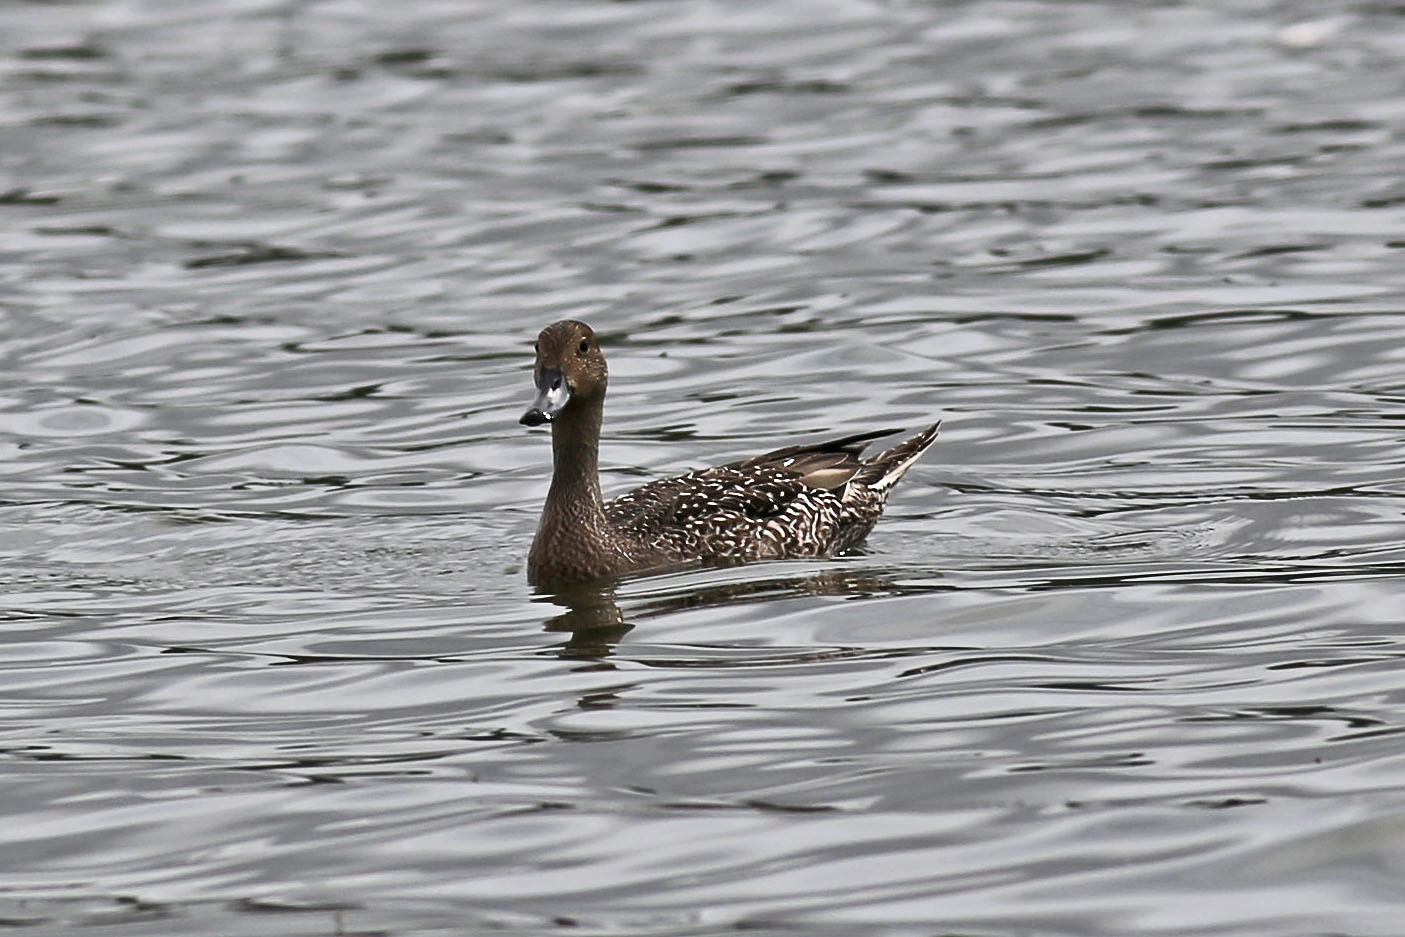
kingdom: Animalia
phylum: Chordata
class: Aves
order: Anseriformes
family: Anatidae
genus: Anas
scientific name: Anas acuta
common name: Northern pintail
